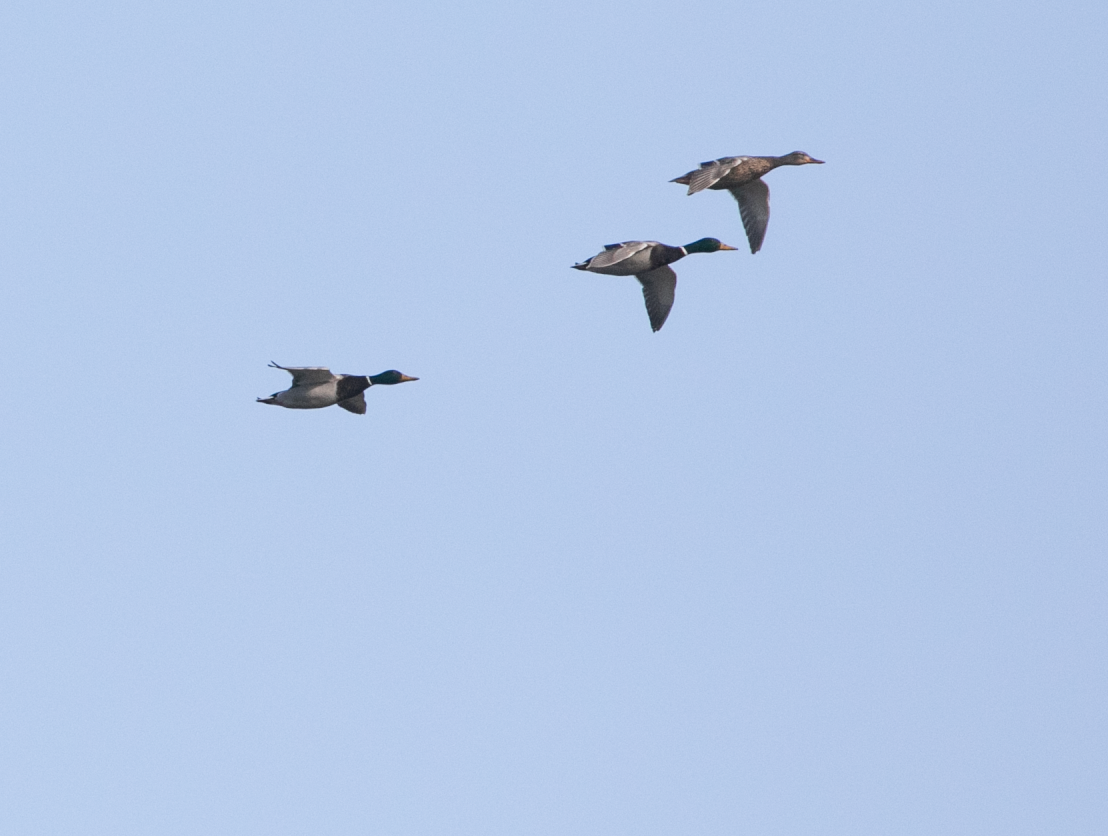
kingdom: Animalia
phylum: Chordata
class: Aves
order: Anseriformes
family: Anatidae
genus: Anas
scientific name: Anas platyrhynchos
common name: Mallard
